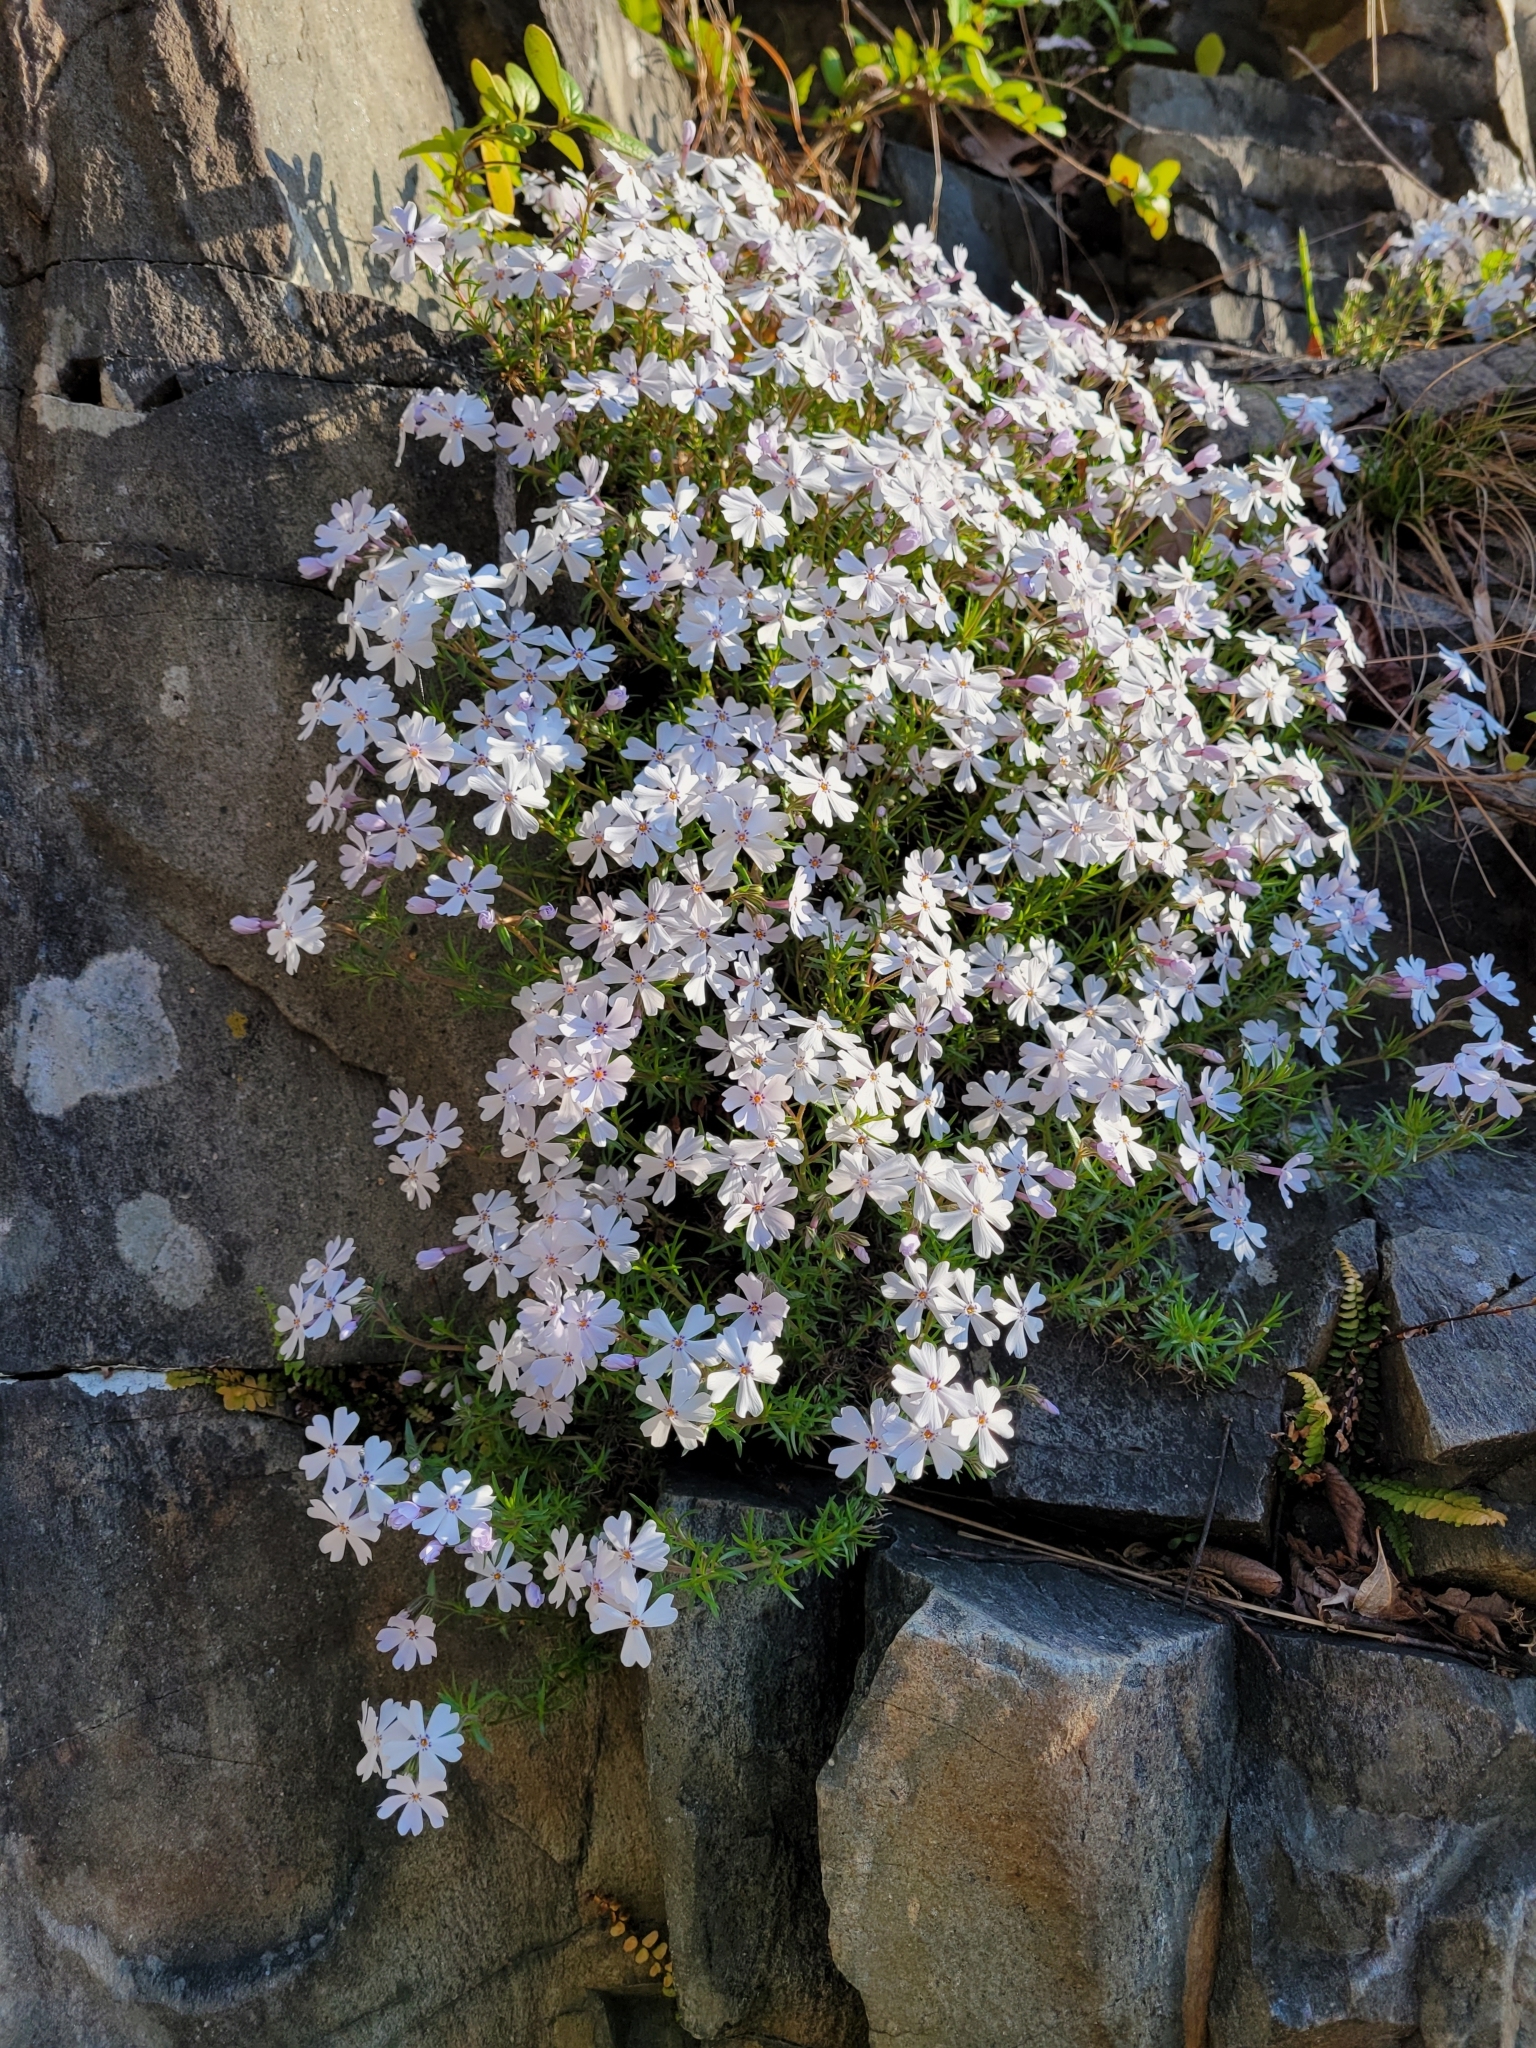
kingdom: Plantae
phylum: Tracheophyta
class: Magnoliopsida
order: Ericales
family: Polemoniaceae
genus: Phlox
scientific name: Phlox subulata
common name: Moss phlox
